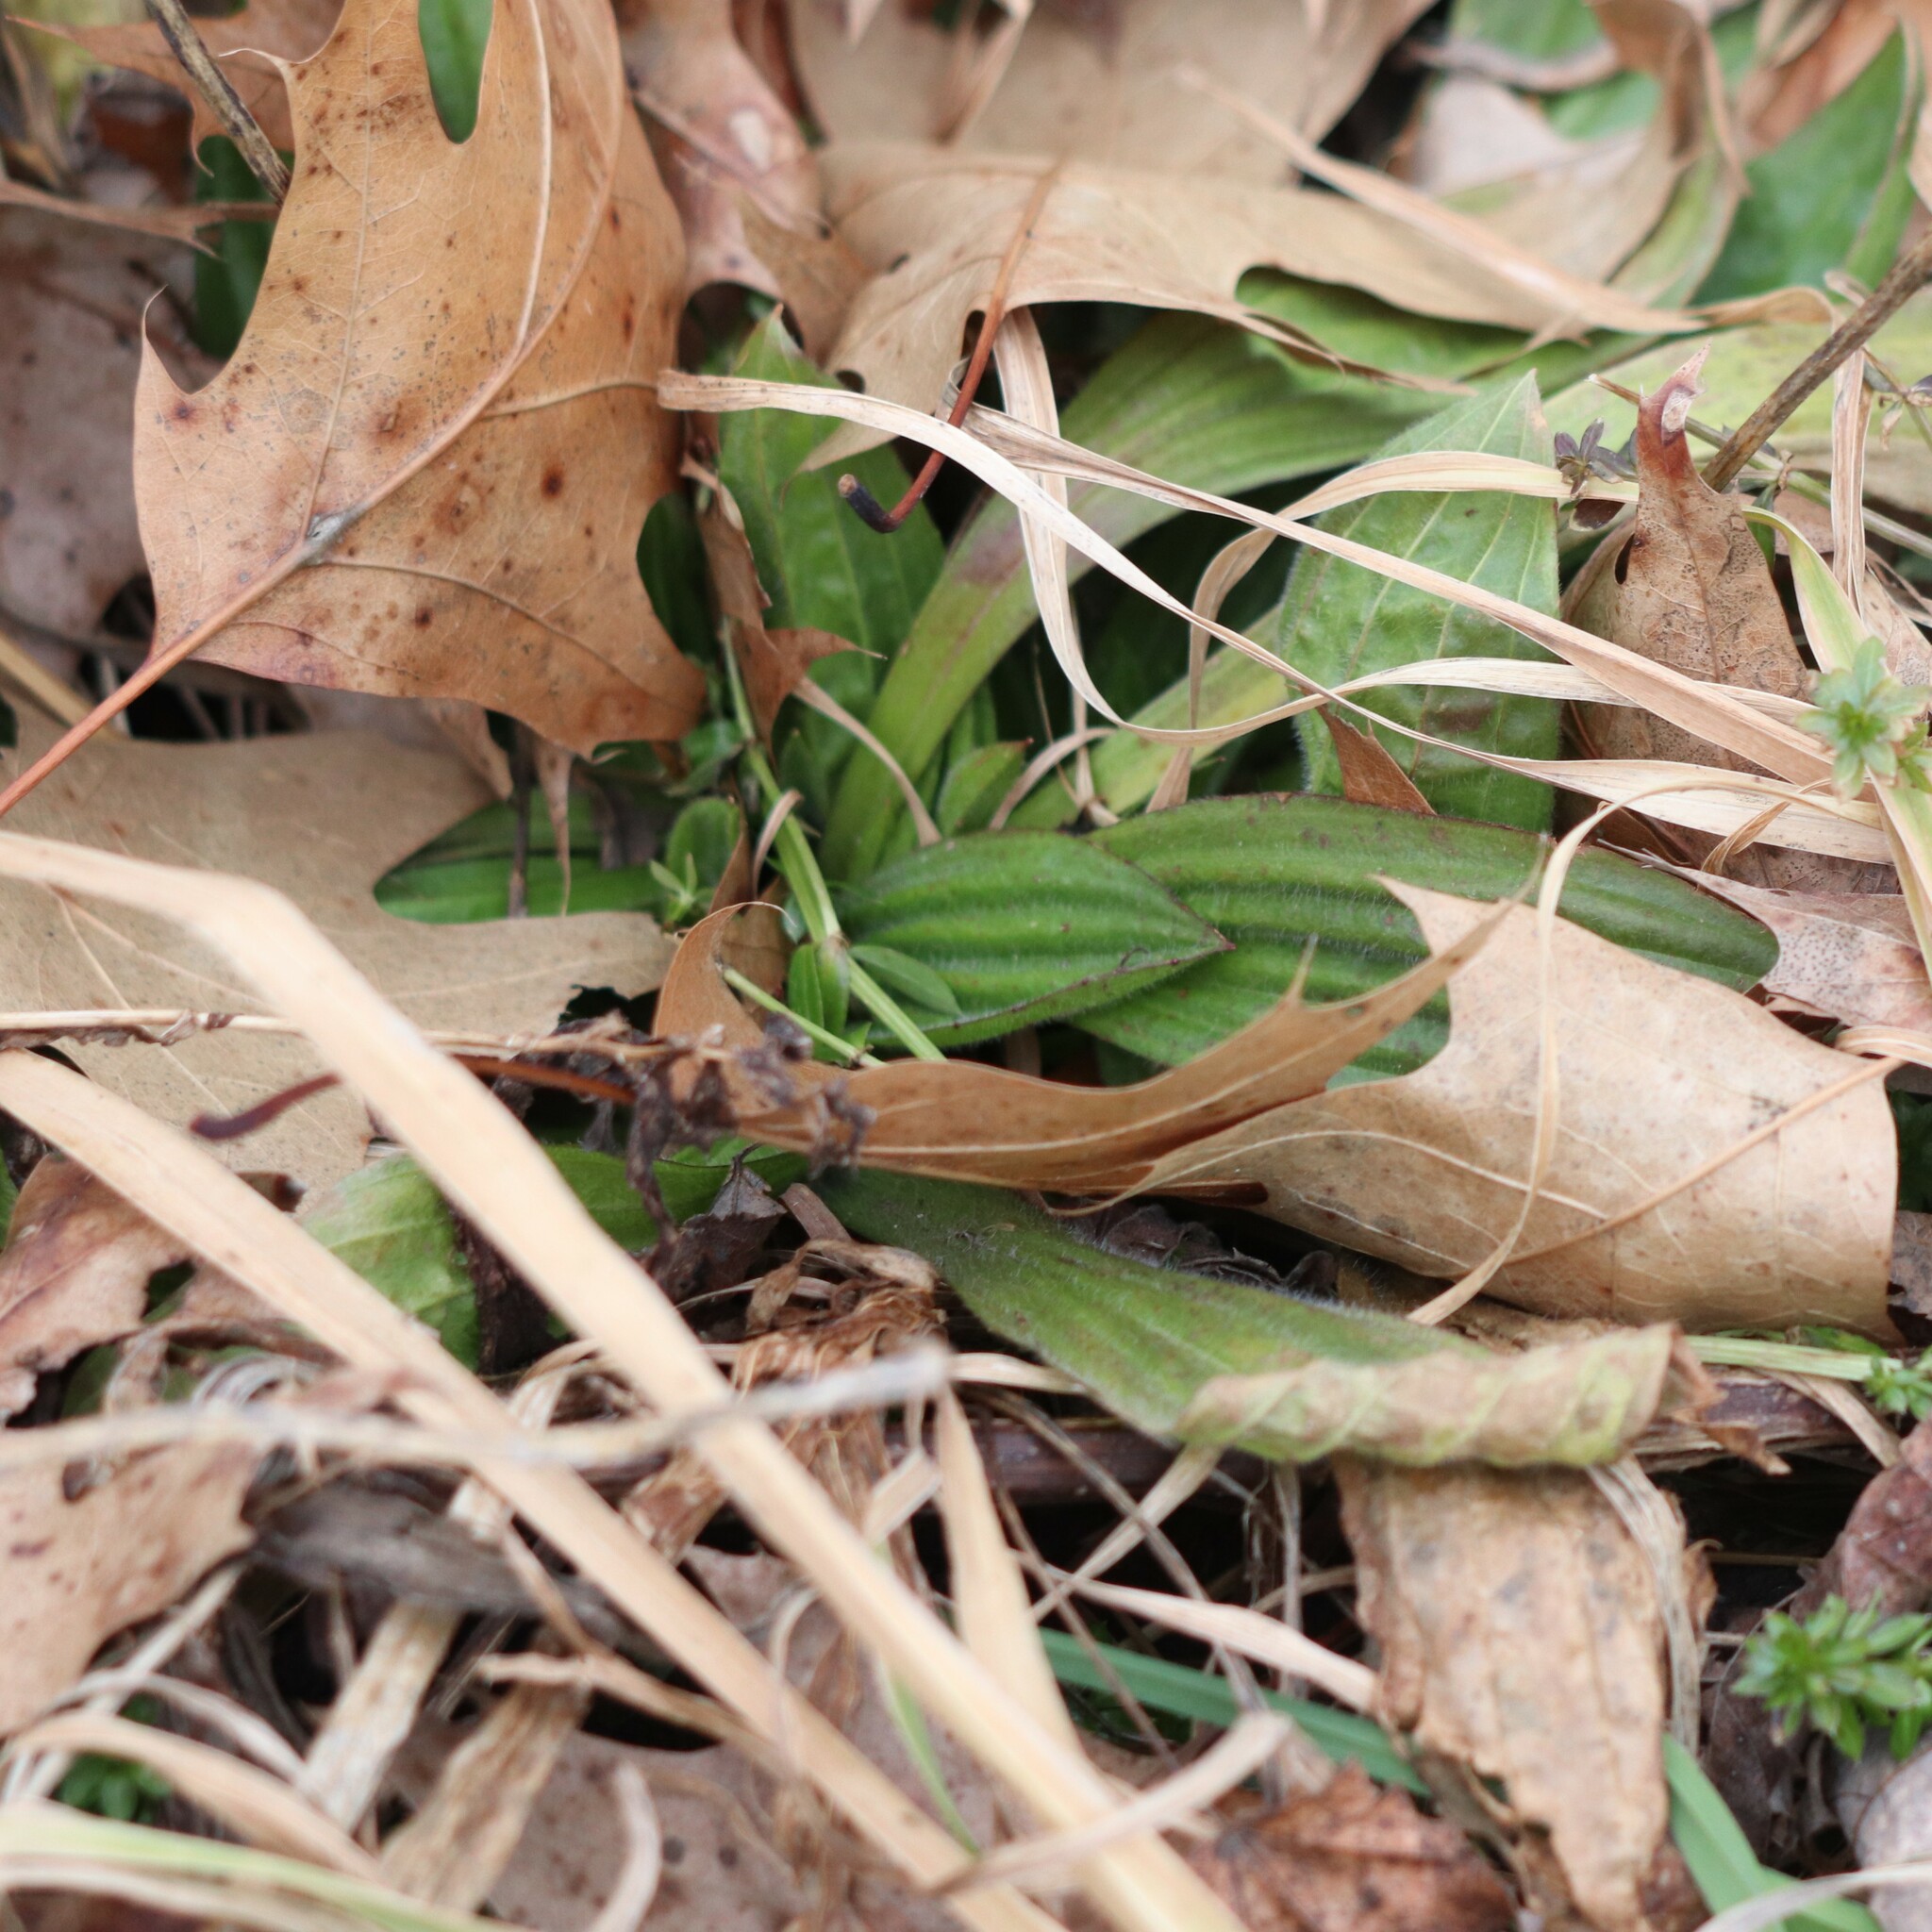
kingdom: Plantae
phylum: Tracheophyta
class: Magnoliopsida
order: Lamiales
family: Plantaginaceae
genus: Plantago
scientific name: Plantago lanceolata
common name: Ribwort plantain
